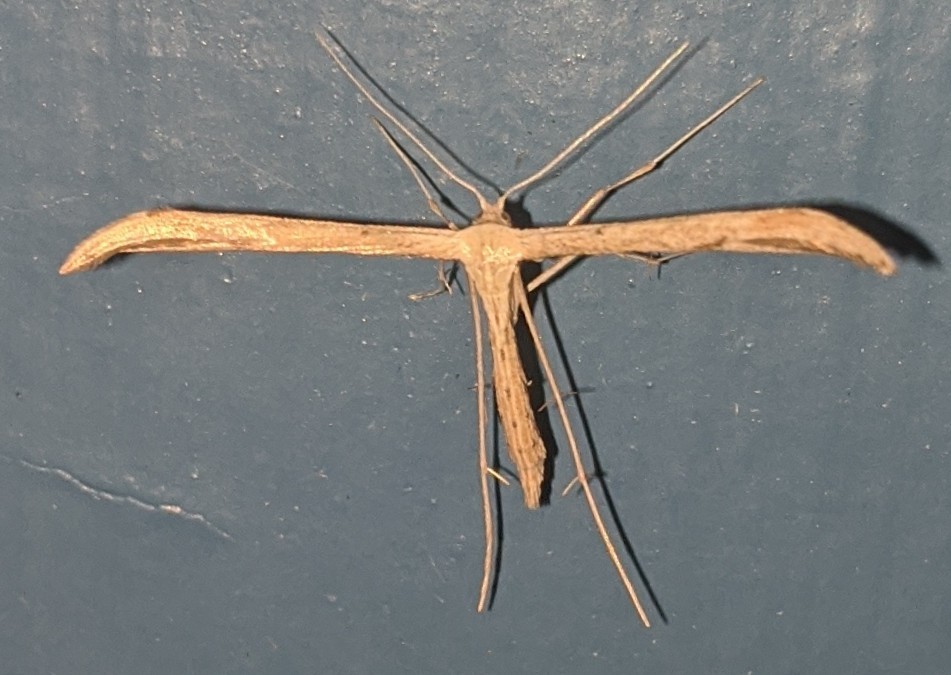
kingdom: Animalia
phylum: Arthropoda
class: Insecta
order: Lepidoptera
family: Pterophoridae
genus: Emmelina
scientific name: Emmelina monodactyla
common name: Common plume
